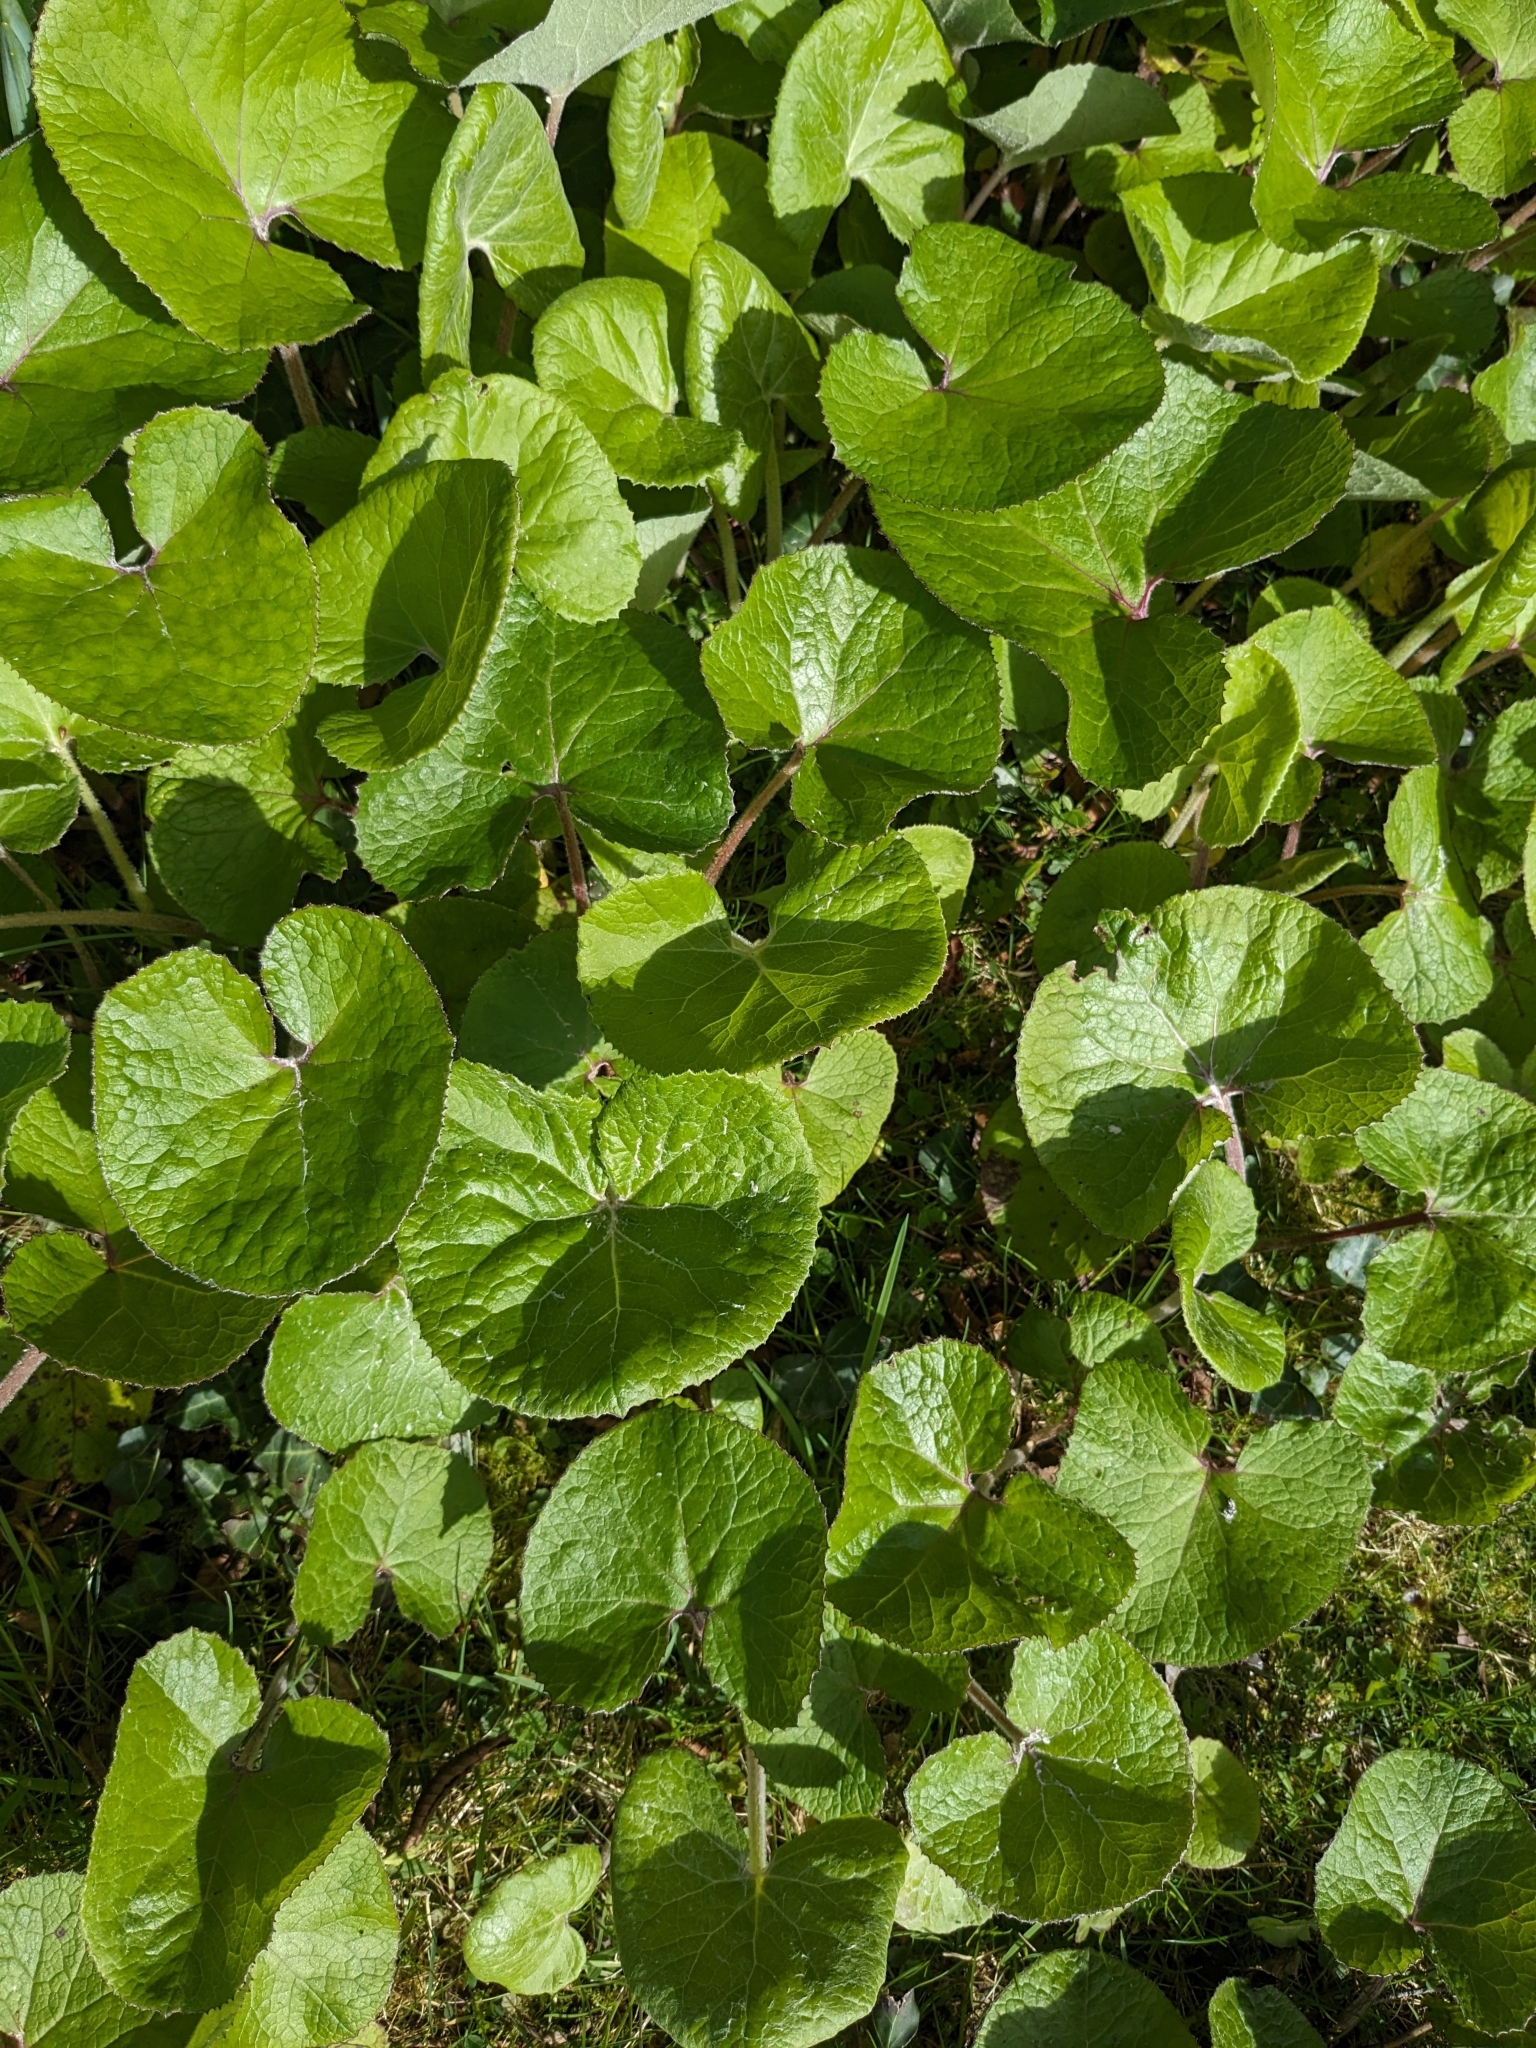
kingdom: Plantae
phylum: Tracheophyta
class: Magnoliopsida
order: Asterales
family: Asteraceae
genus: Petasites
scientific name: Petasites pyrenaicus
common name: Winter heliotrope
